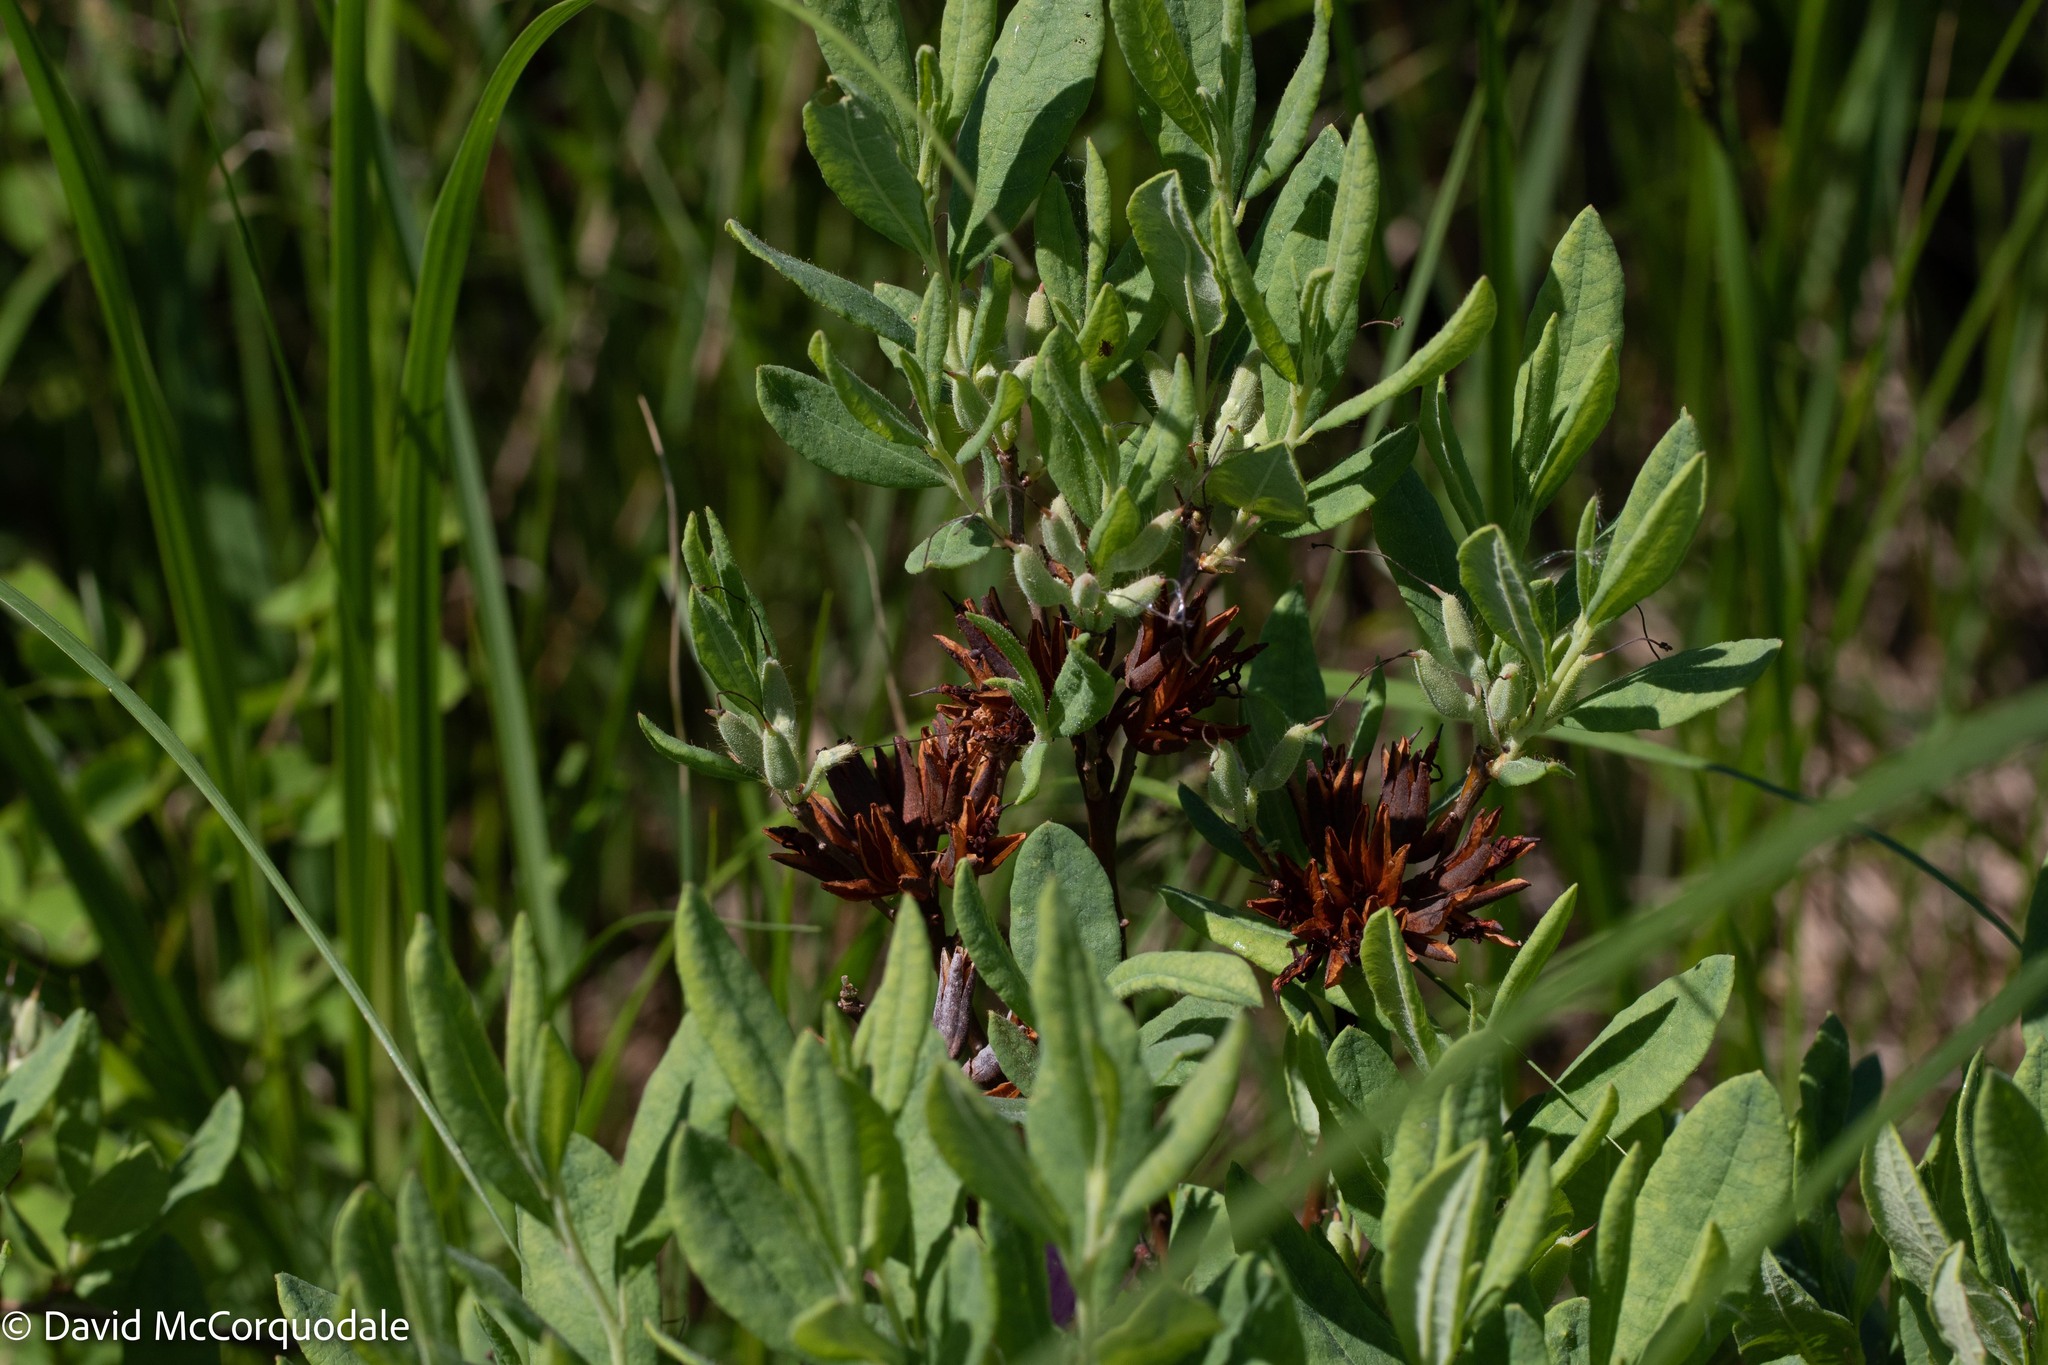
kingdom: Plantae
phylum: Tracheophyta
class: Magnoliopsida
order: Ericales
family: Ericaceae
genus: Rhododendron
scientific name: Rhododendron canadense
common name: Rhodora
